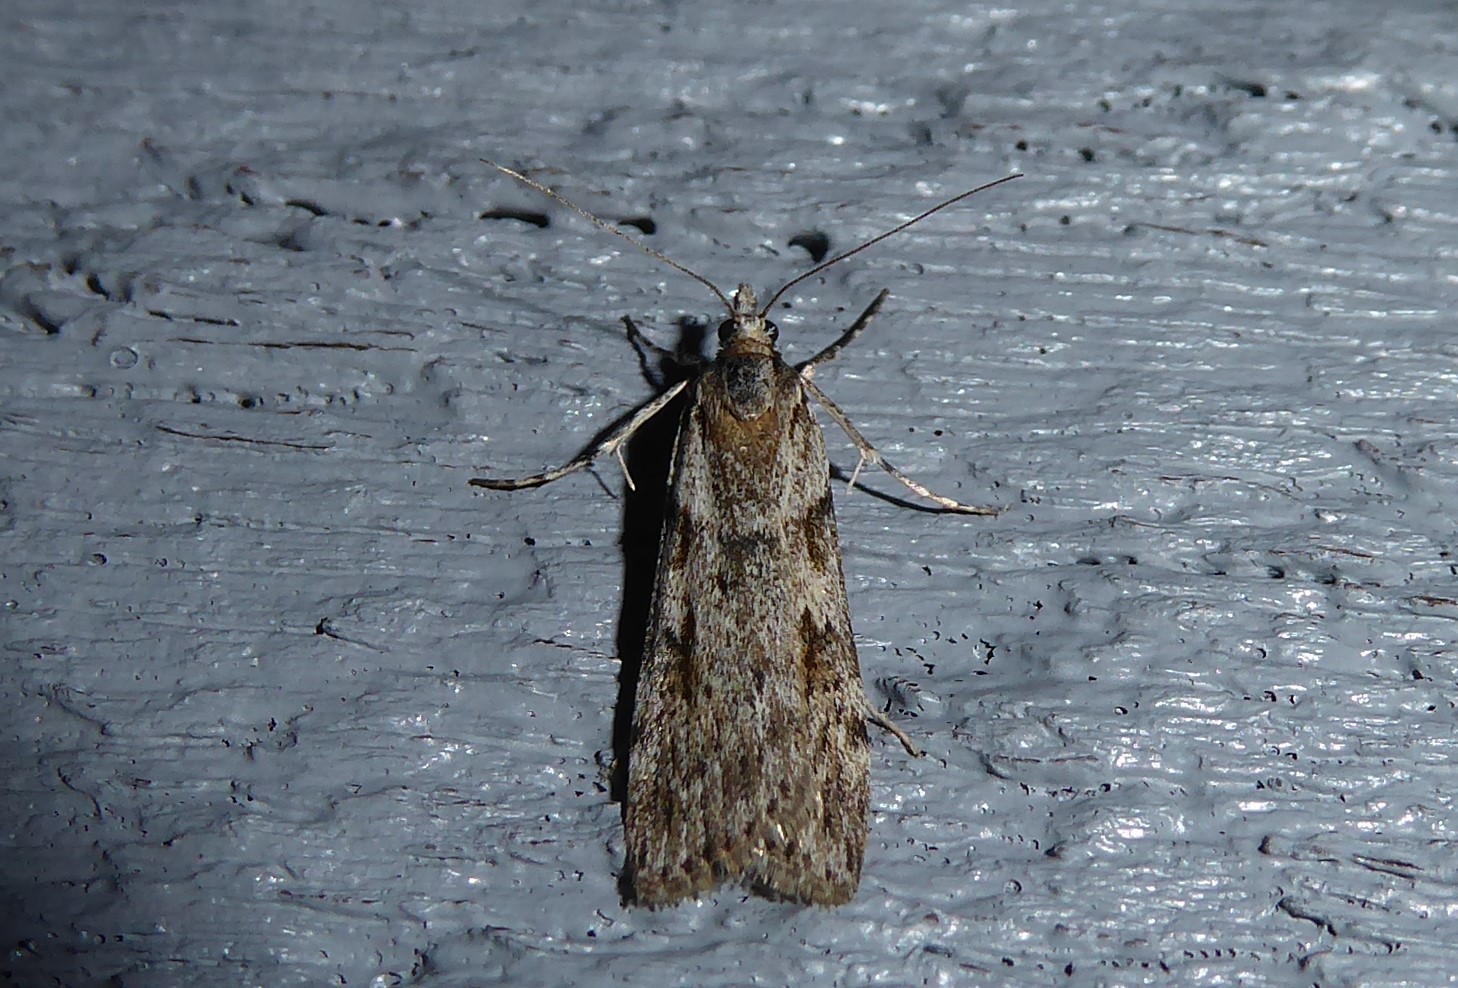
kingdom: Animalia
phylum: Arthropoda
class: Insecta
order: Lepidoptera
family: Crambidae
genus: Scoparia
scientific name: Scoparia halopis
